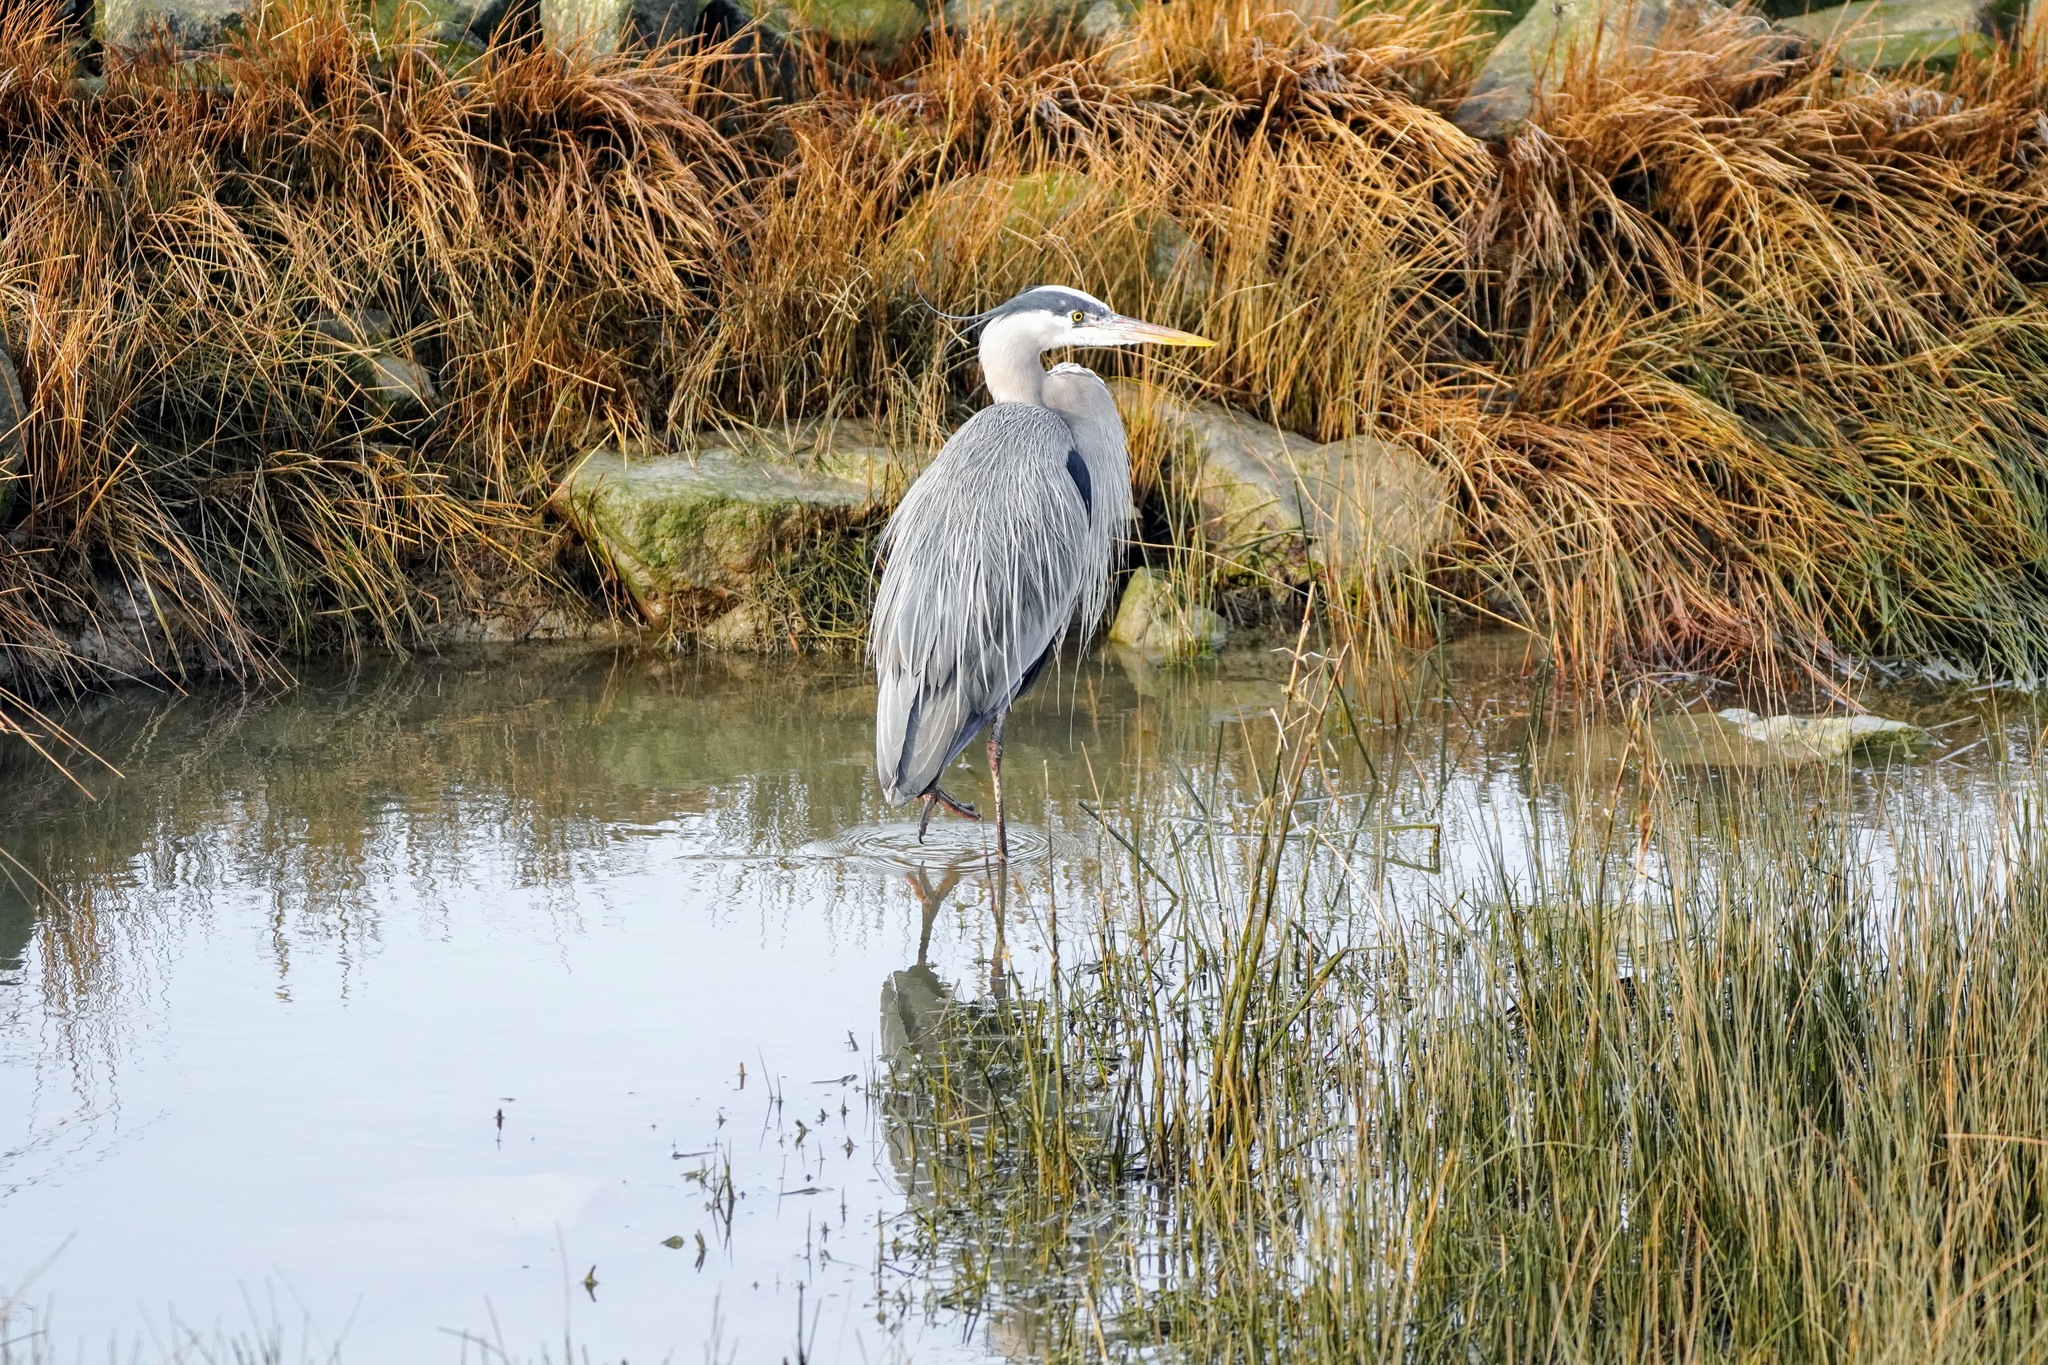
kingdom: Animalia
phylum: Chordata
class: Aves
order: Pelecaniformes
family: Ardeidae
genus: Ardea
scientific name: Ardea herodias
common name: Great blue heron
